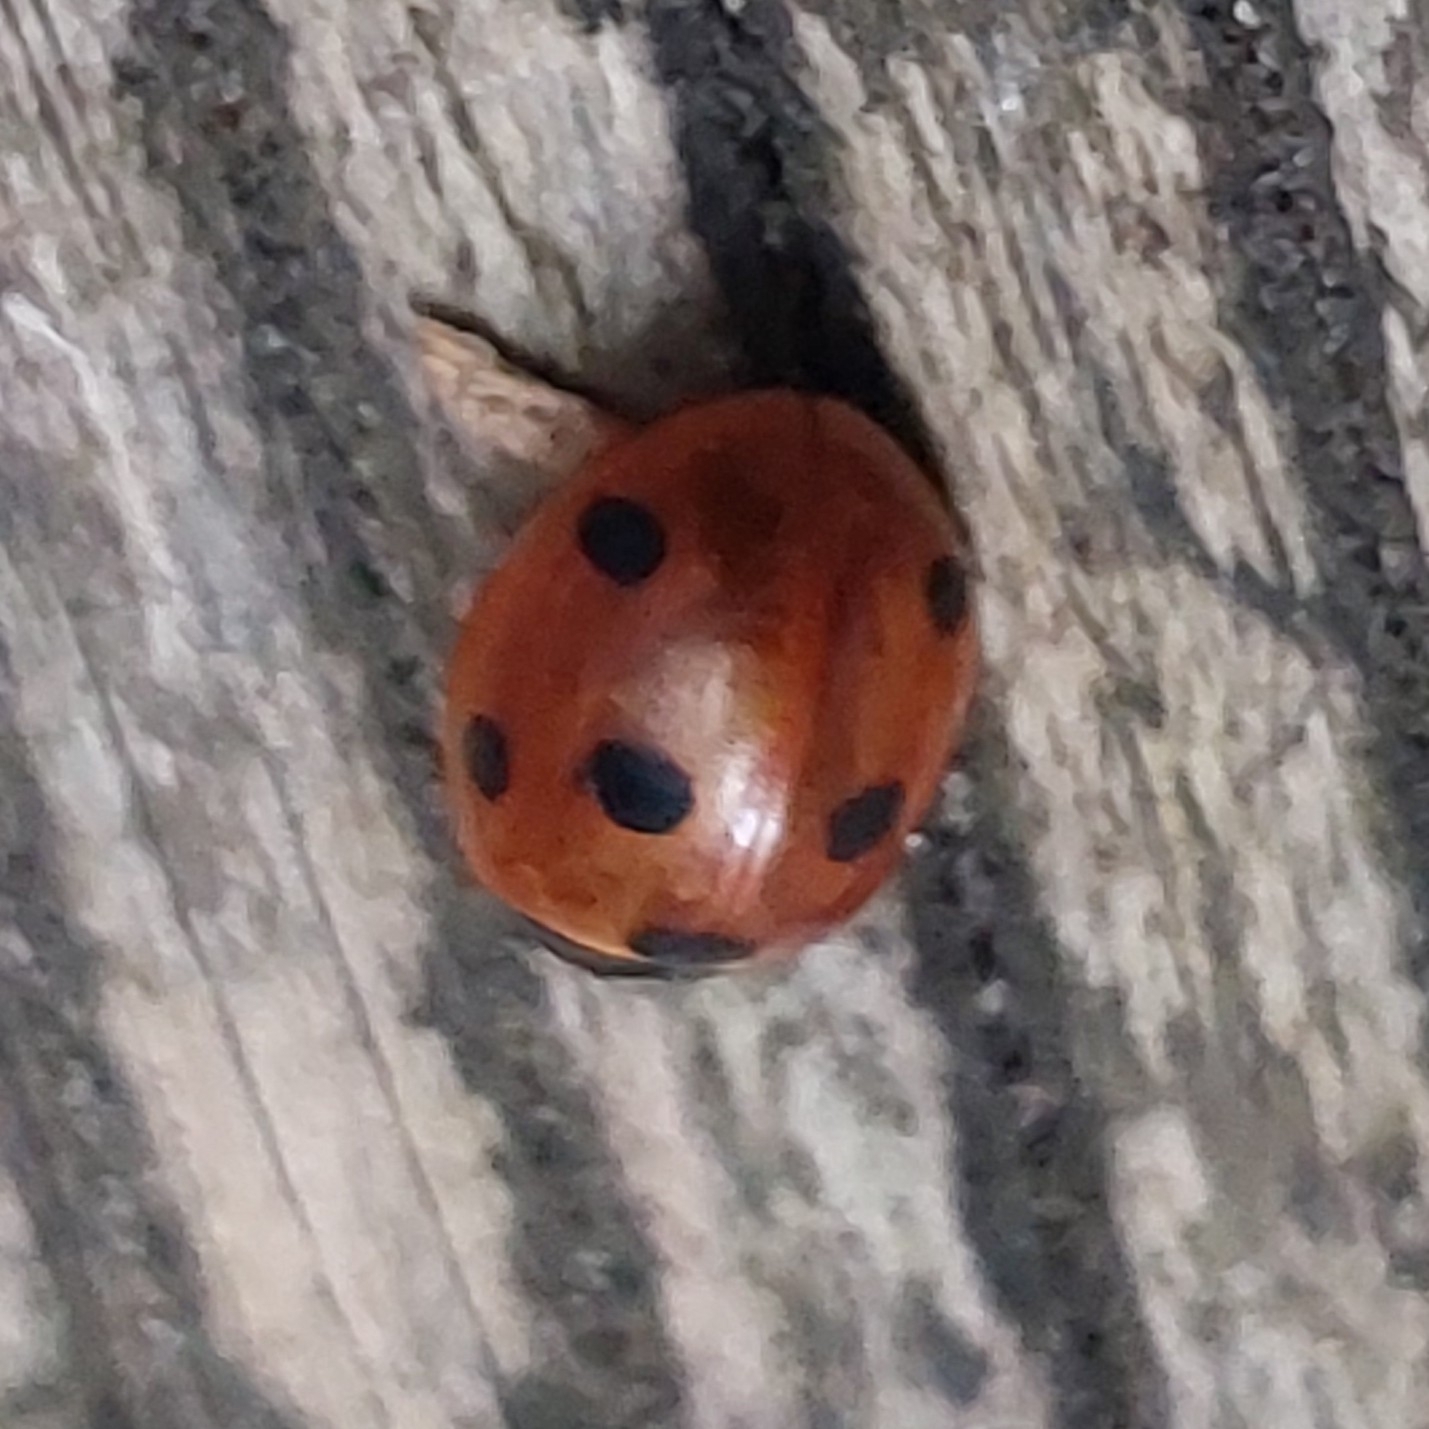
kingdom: Animalia
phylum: Arthropoda
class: Insecta
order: Coleoptera
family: Coccinellidae
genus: Coccinella
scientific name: Coccinella septempunctata
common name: Sevenspotted lady beetle
